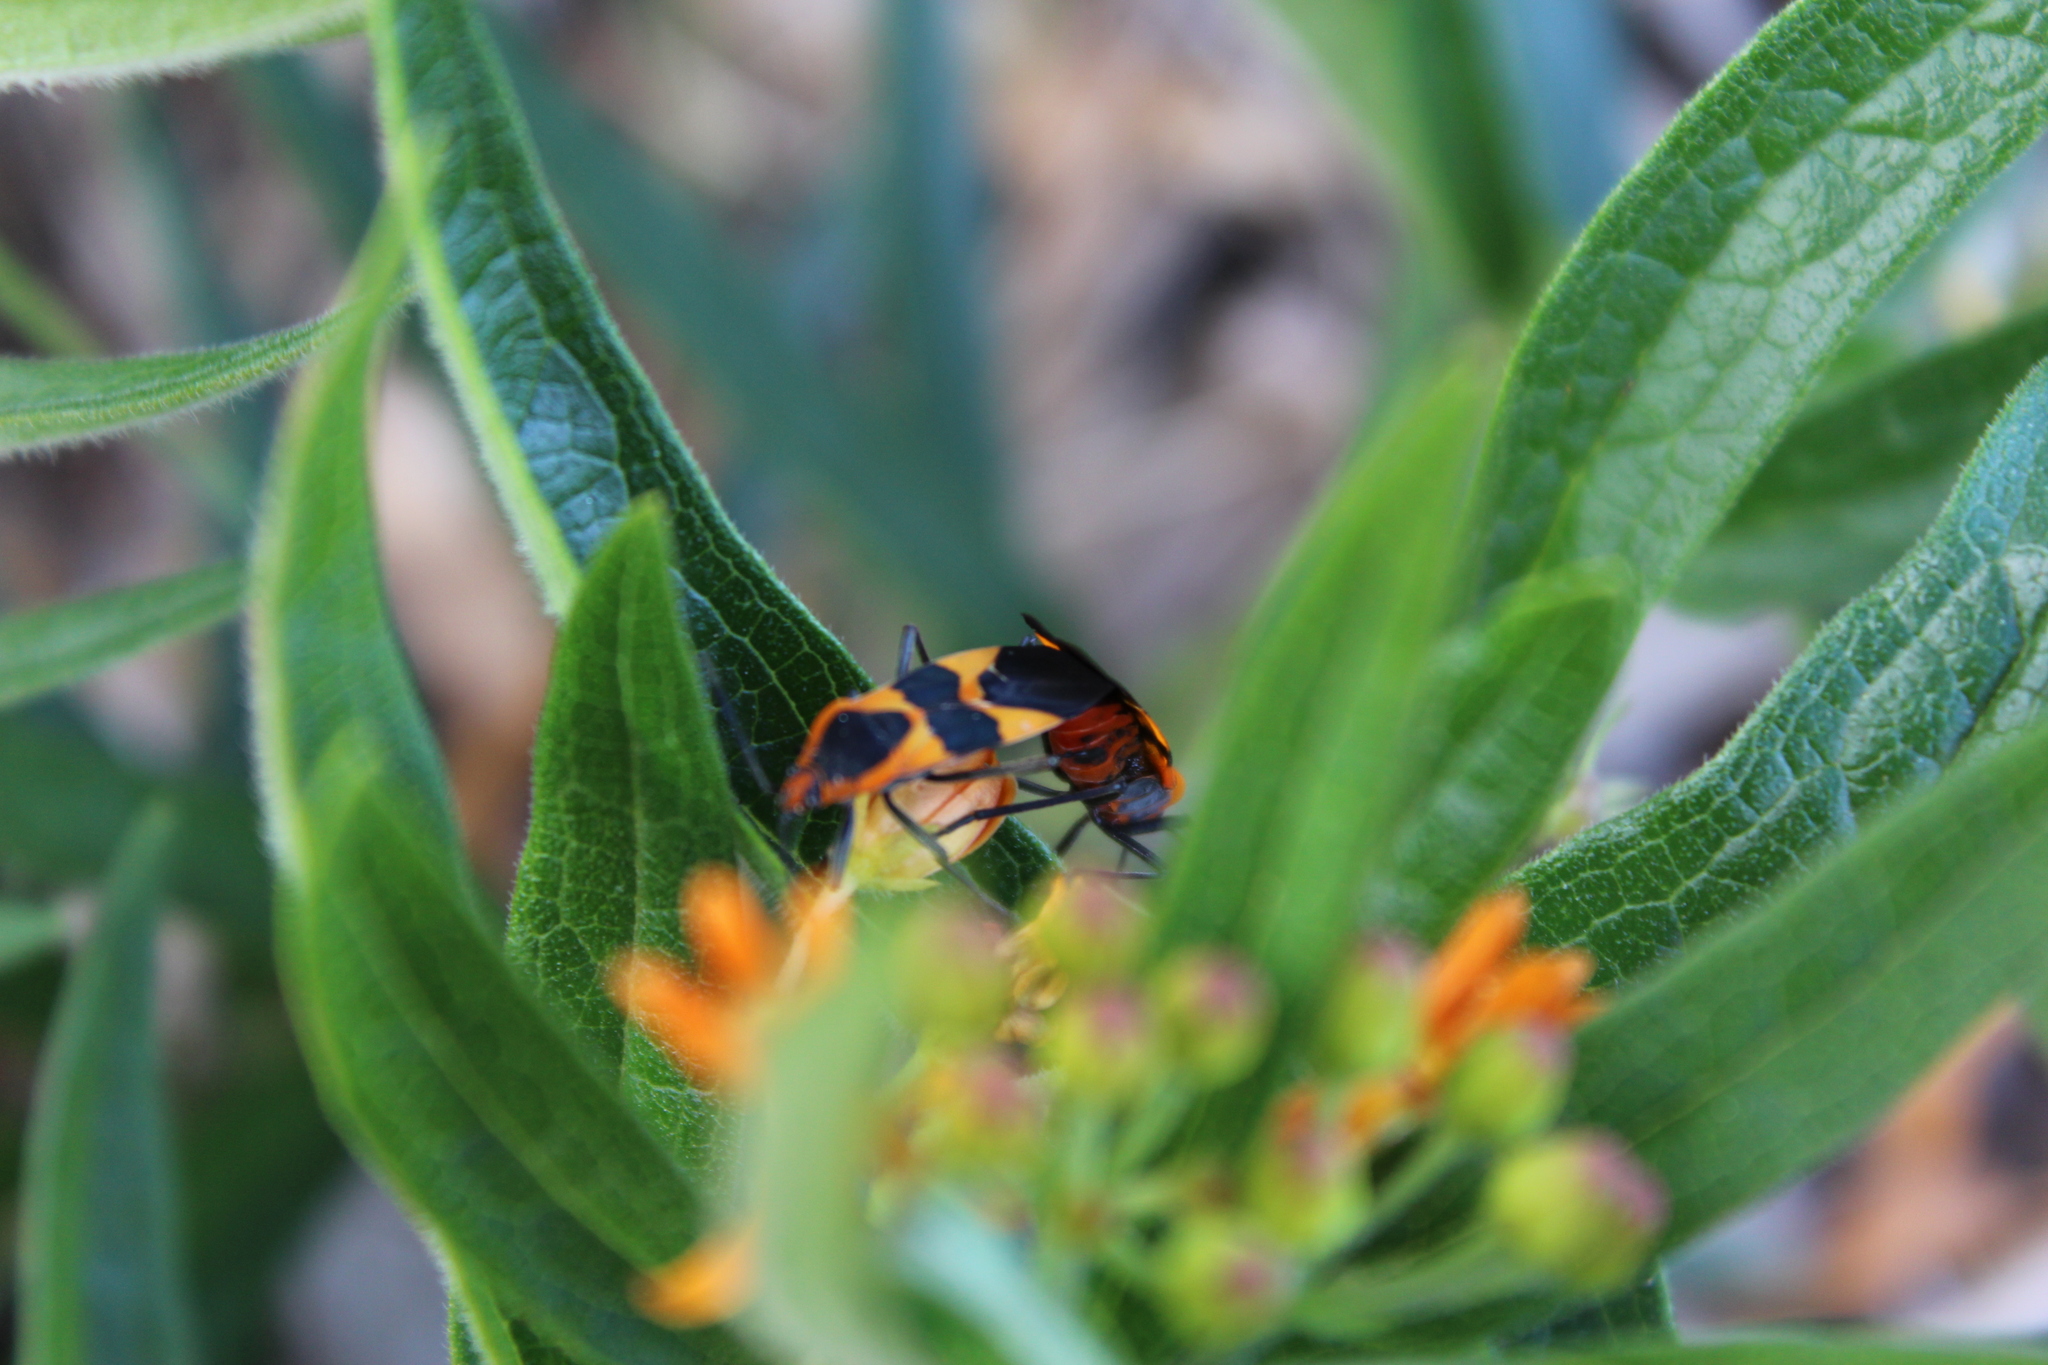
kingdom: Animalia
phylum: Arthropoda
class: Insecta
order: Hemiptera
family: Lygaeidae
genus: Oncopeltus
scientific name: Oncopeltus fasciatus
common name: Large milkweed bug
